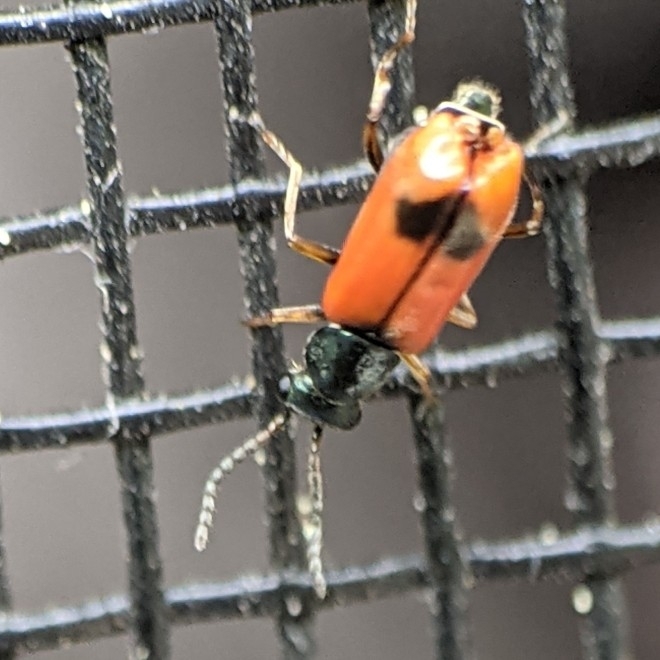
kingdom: Animalia
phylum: Arthropoda
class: Insecta
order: Coleoptera
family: Melyridae
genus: Anthocomus
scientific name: Anthocomus equestris
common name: Black-banded soft-winged flower beetle
